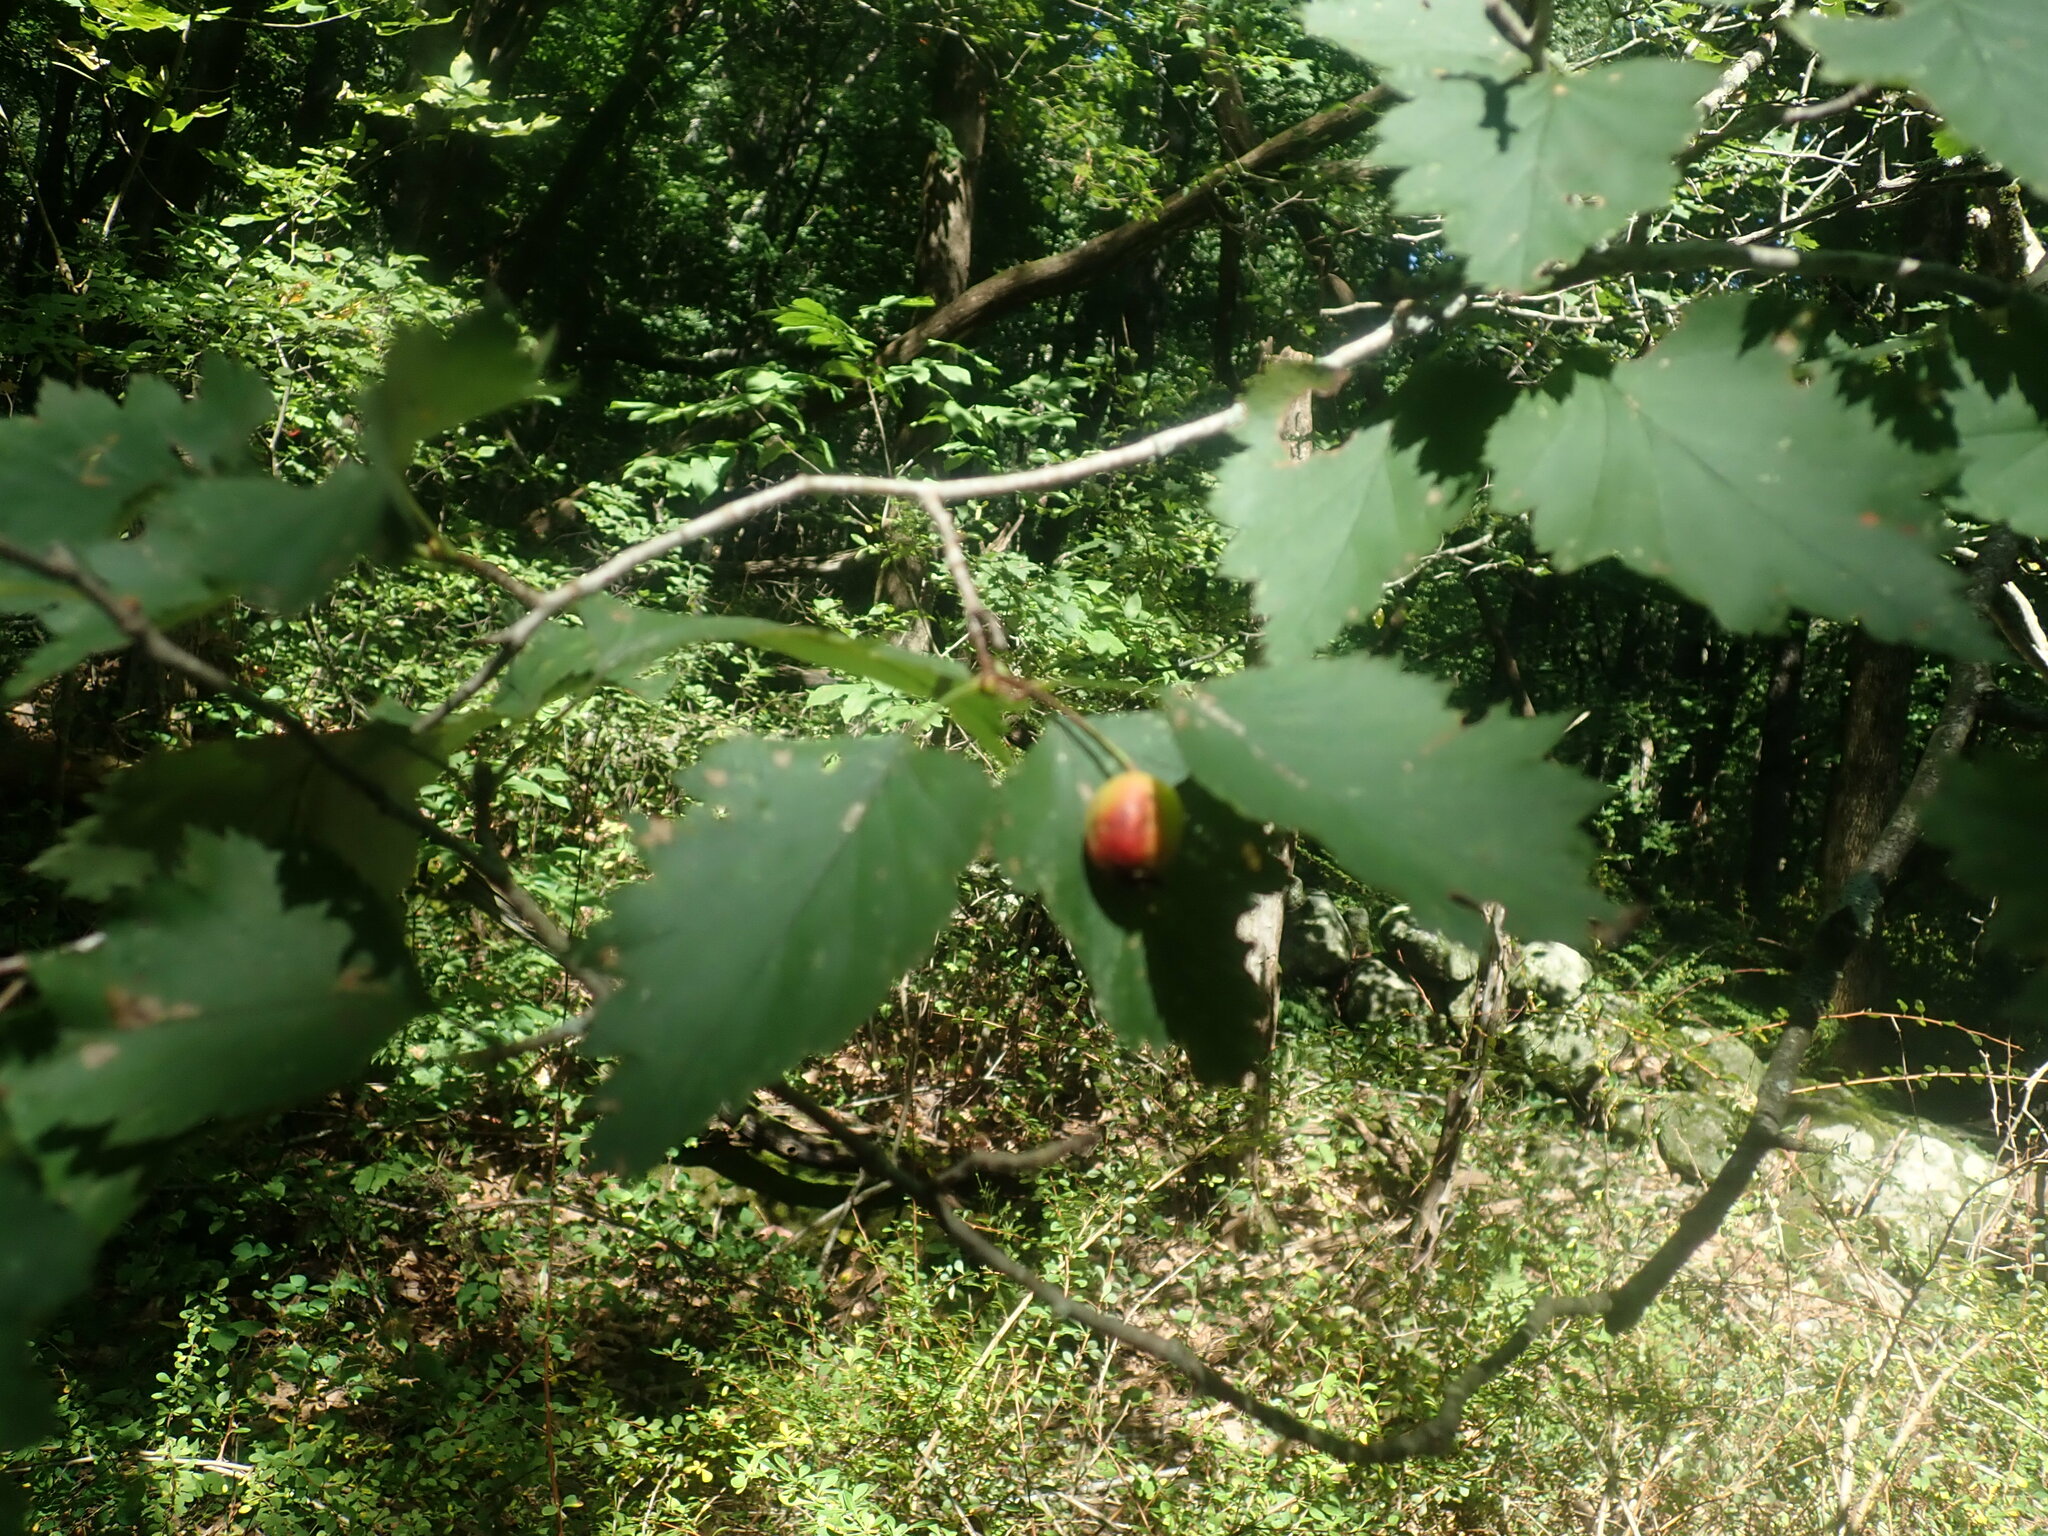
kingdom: Plantae
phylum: Tracheophyta
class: Magnoliopsida
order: Rosales
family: Rosaceae
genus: Crataegus
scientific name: Crataegus
